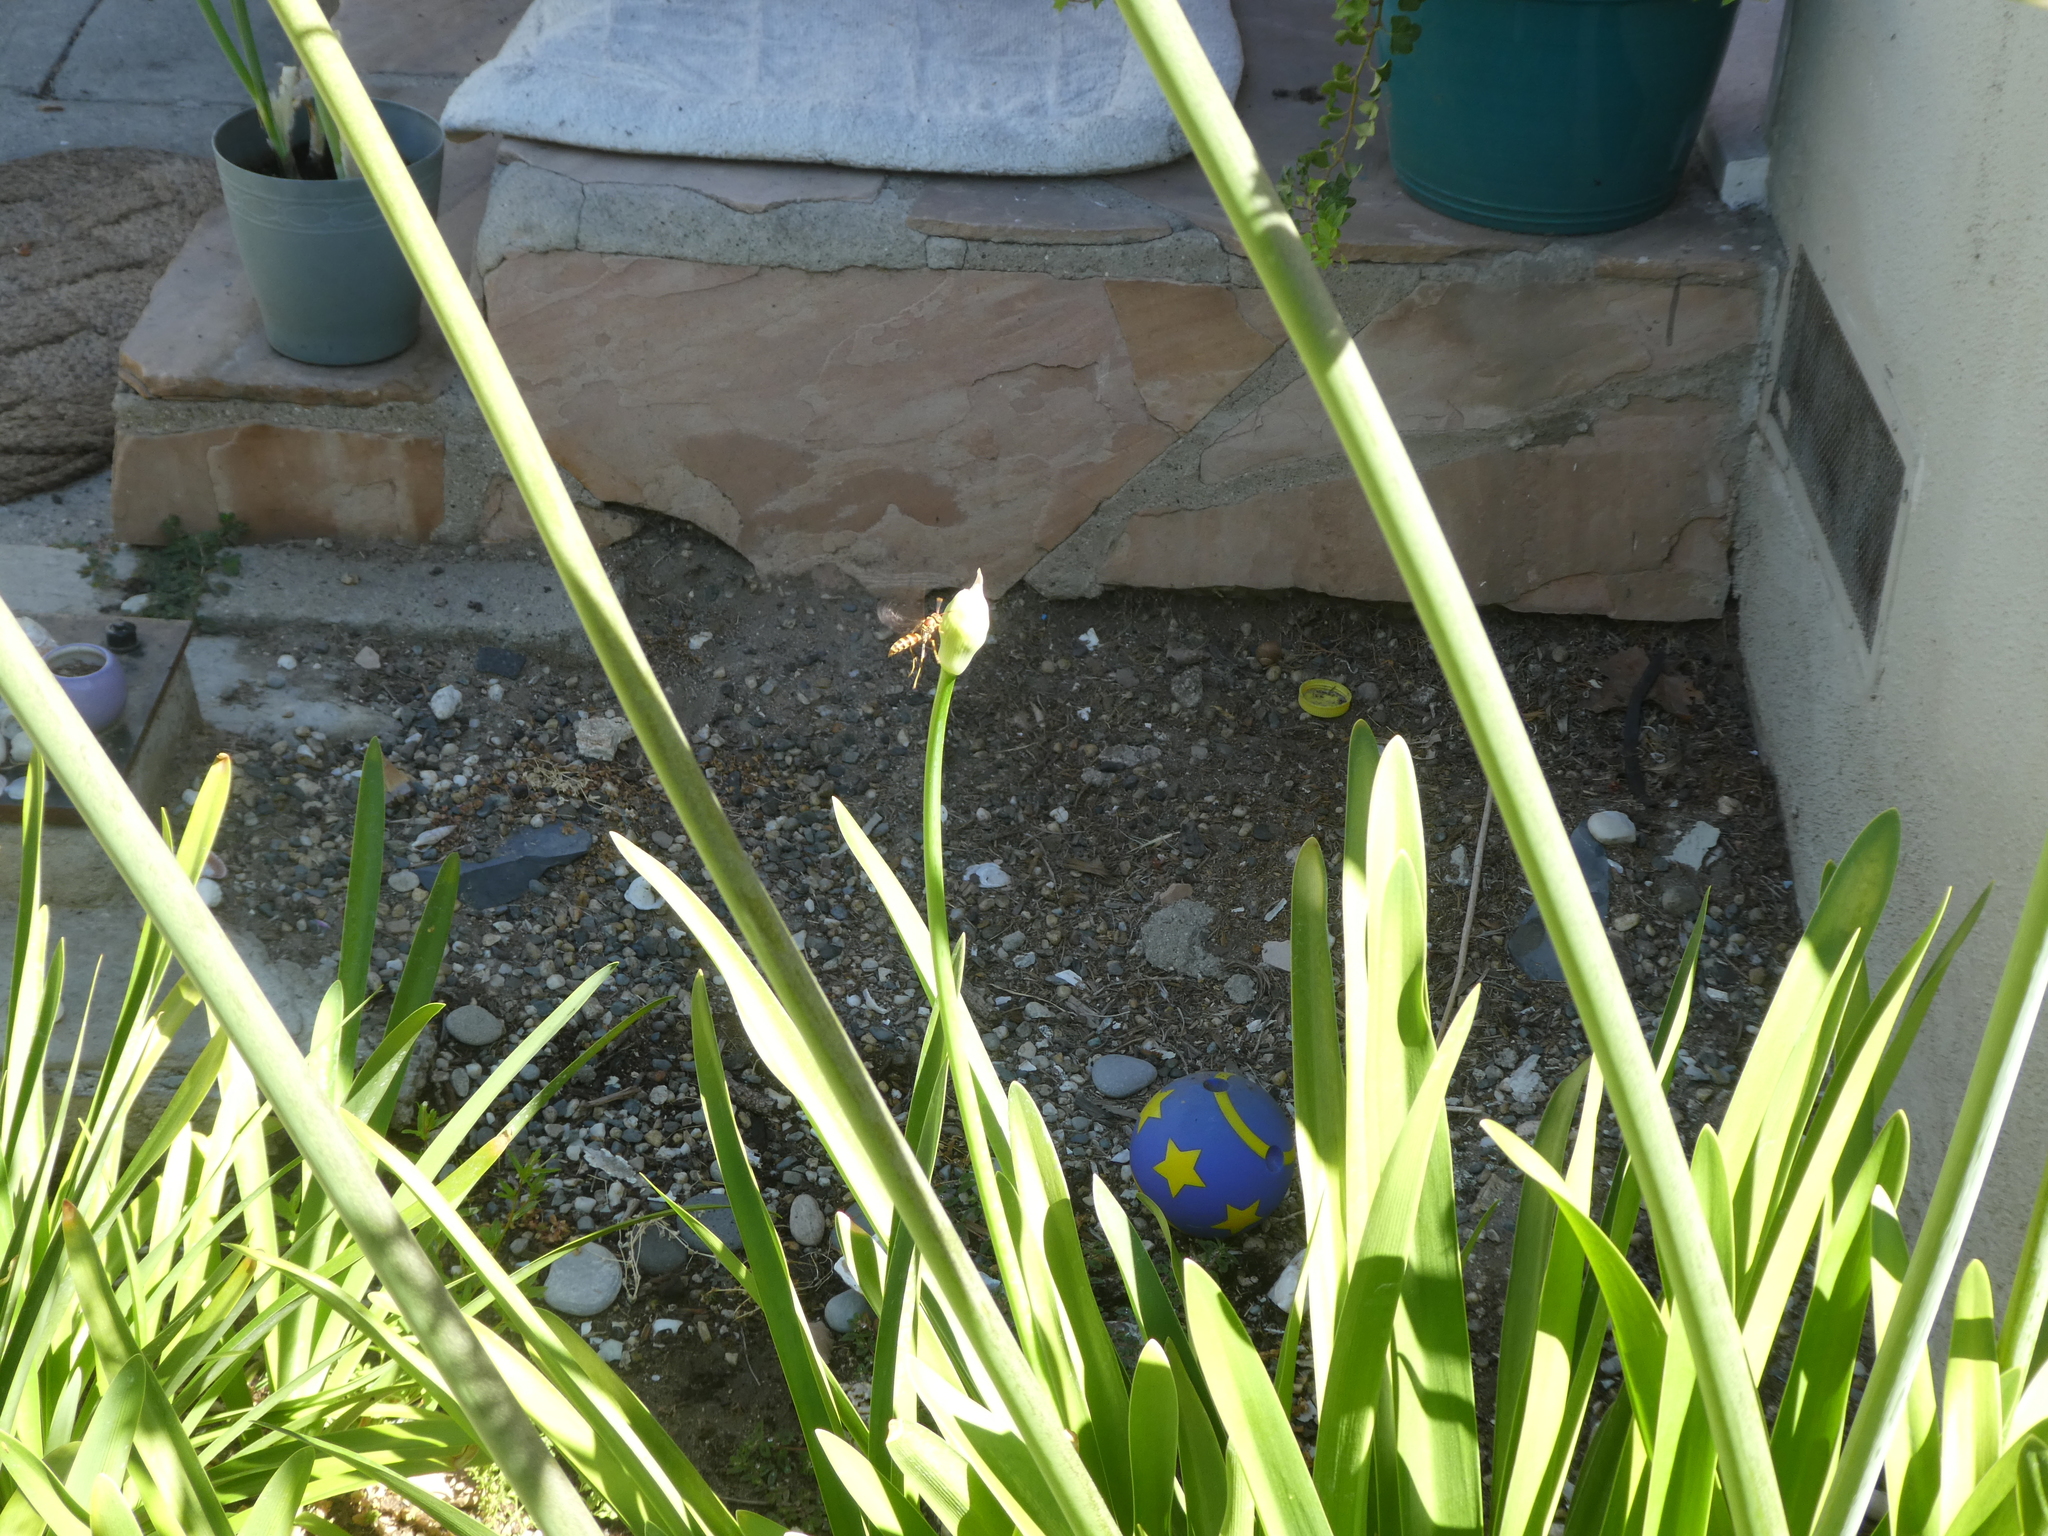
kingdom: Animalia
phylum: Arthropoda
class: Insecta
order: Hymenoptera
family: Eumenidae
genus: Polistes
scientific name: Polistes exclamans
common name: Paper wasp
